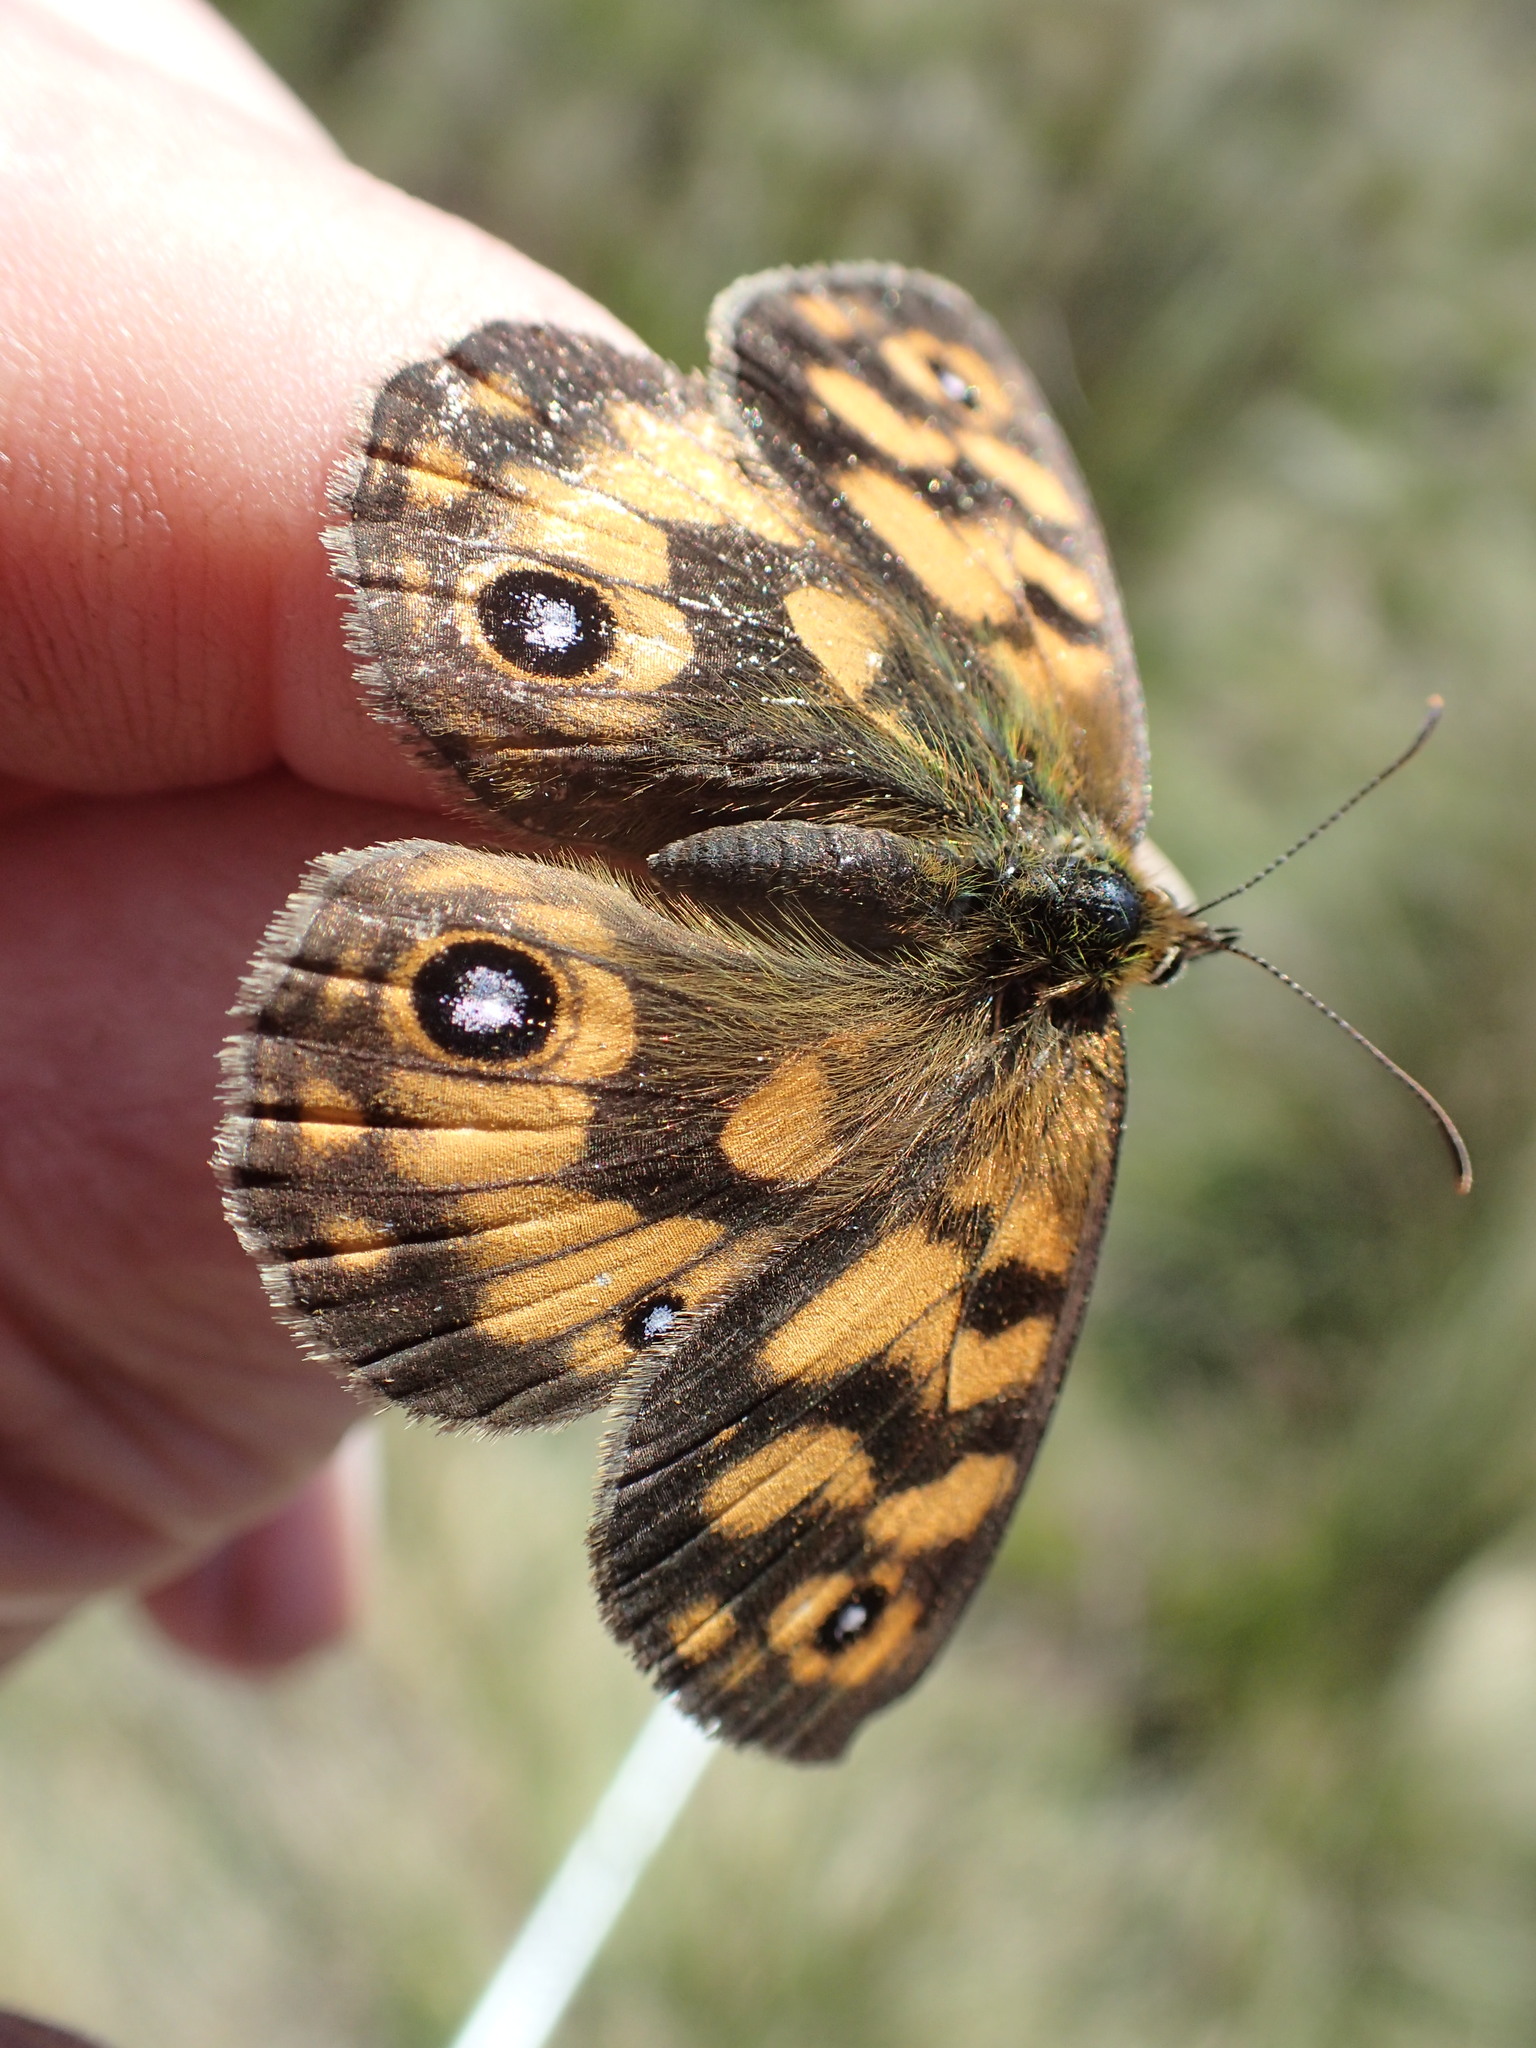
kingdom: Animalia
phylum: Arthropoda
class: Insecta
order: Lepidoptera
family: Nymphalidae
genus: Heteronympha
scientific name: Heteronympha cordace
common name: Bright-eyed brown
